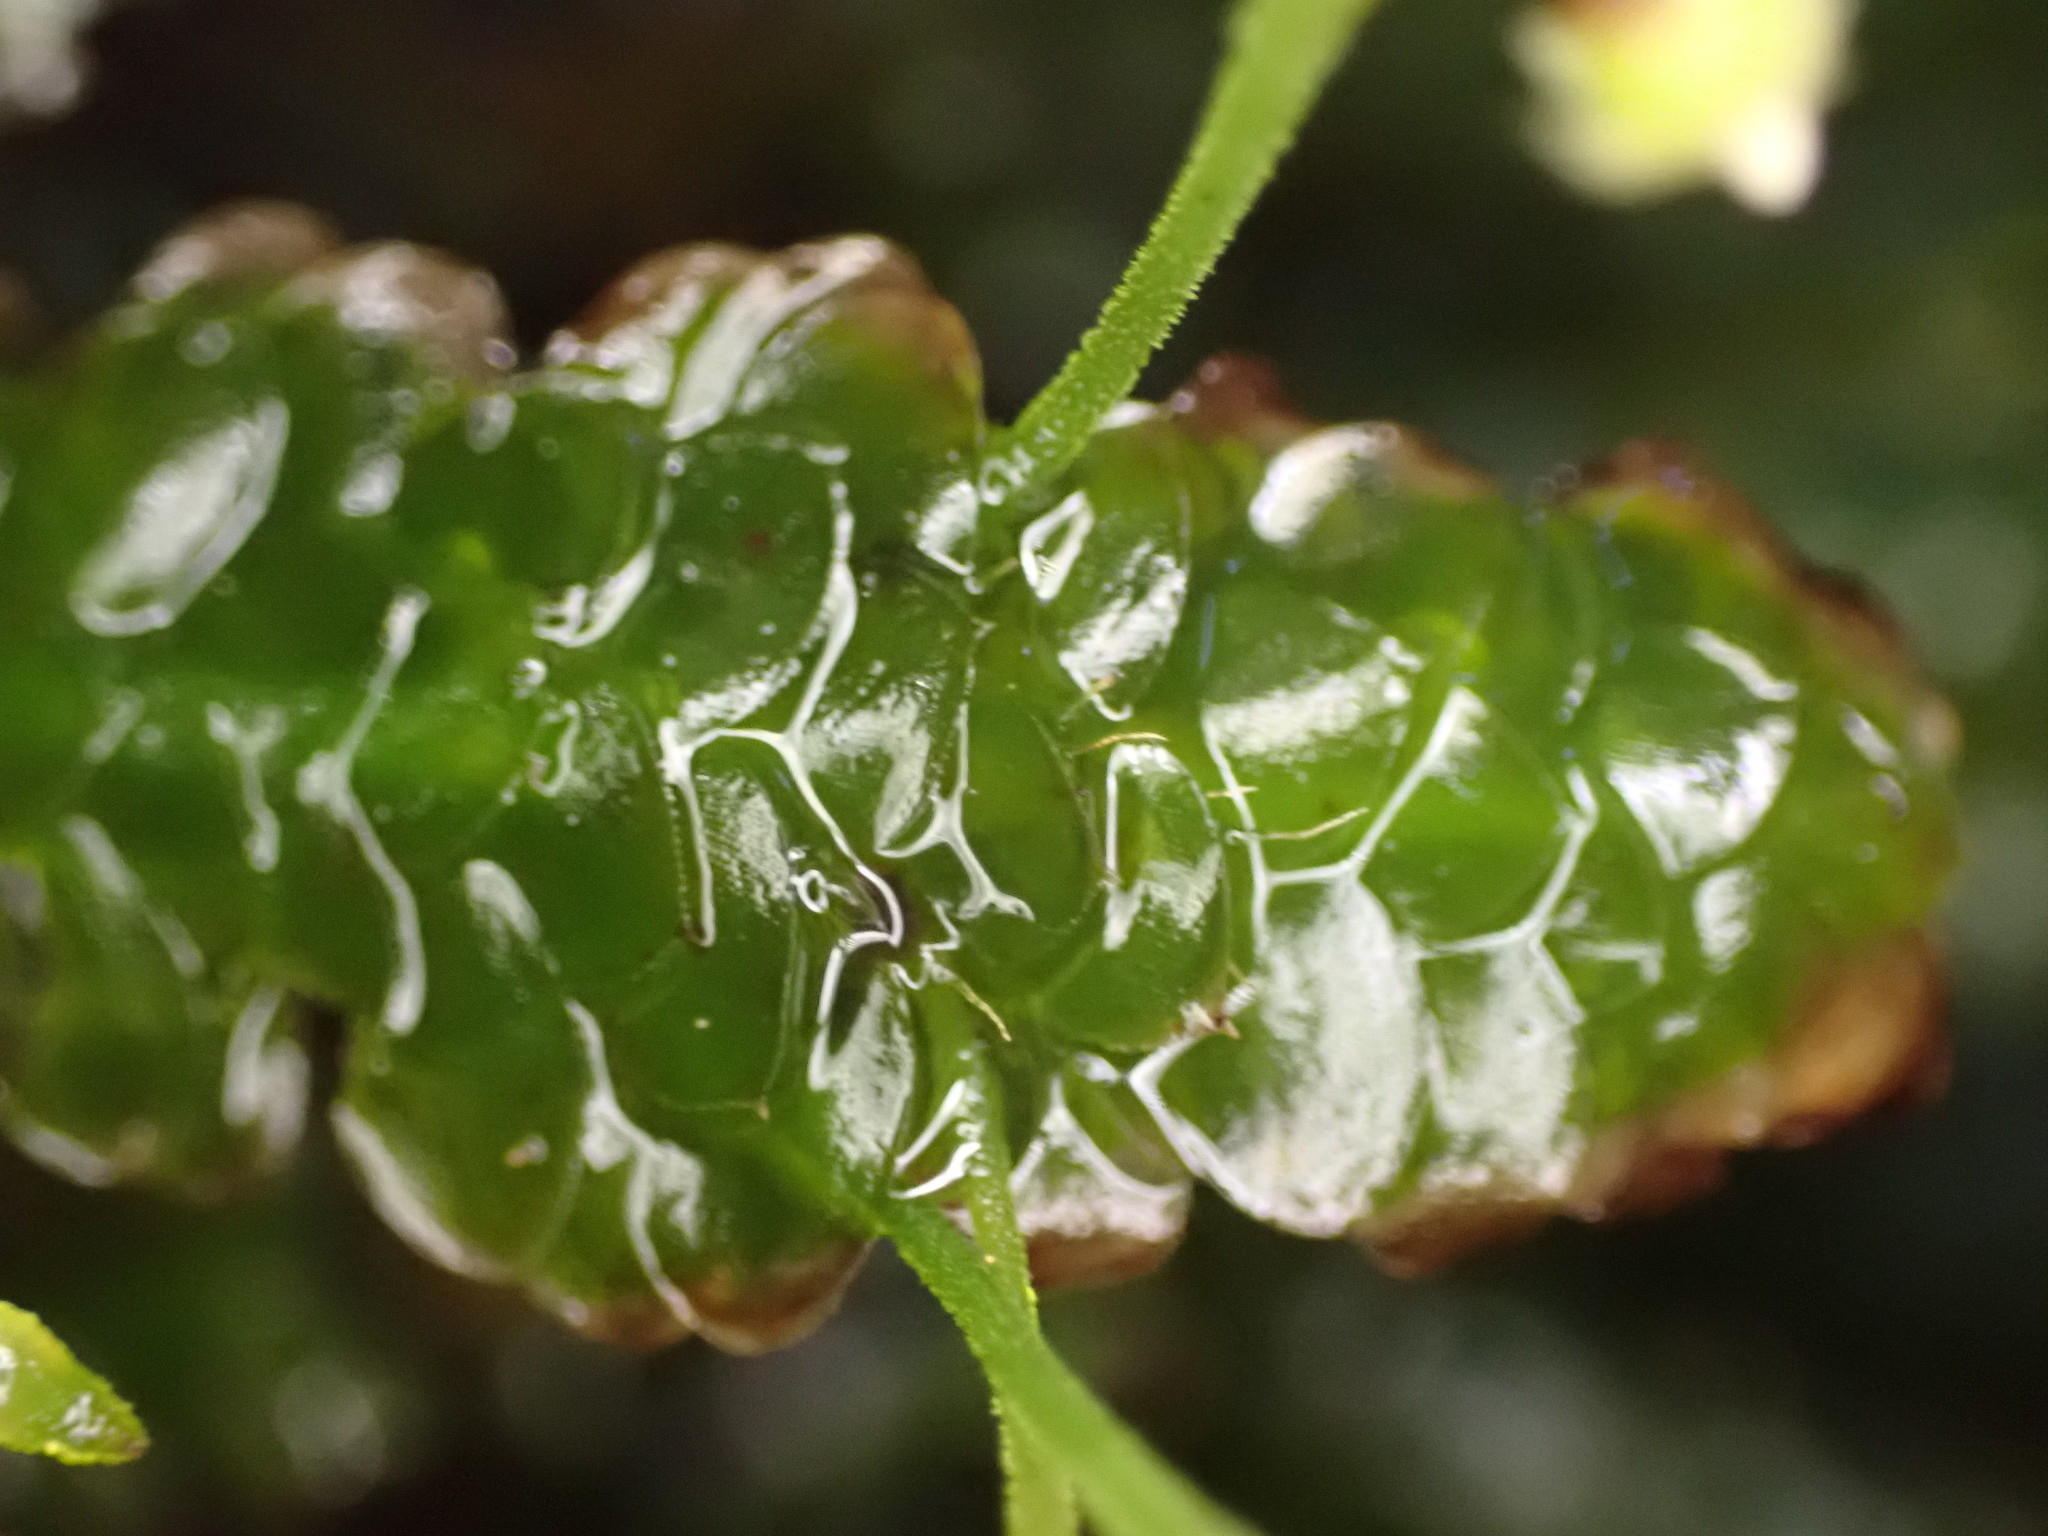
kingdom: Plantae
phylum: Bryophyta
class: Bryopsida
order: Hookeriales
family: Daltoniaceae
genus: Calyptrochaeta
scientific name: Calyptrochaeta cristata
